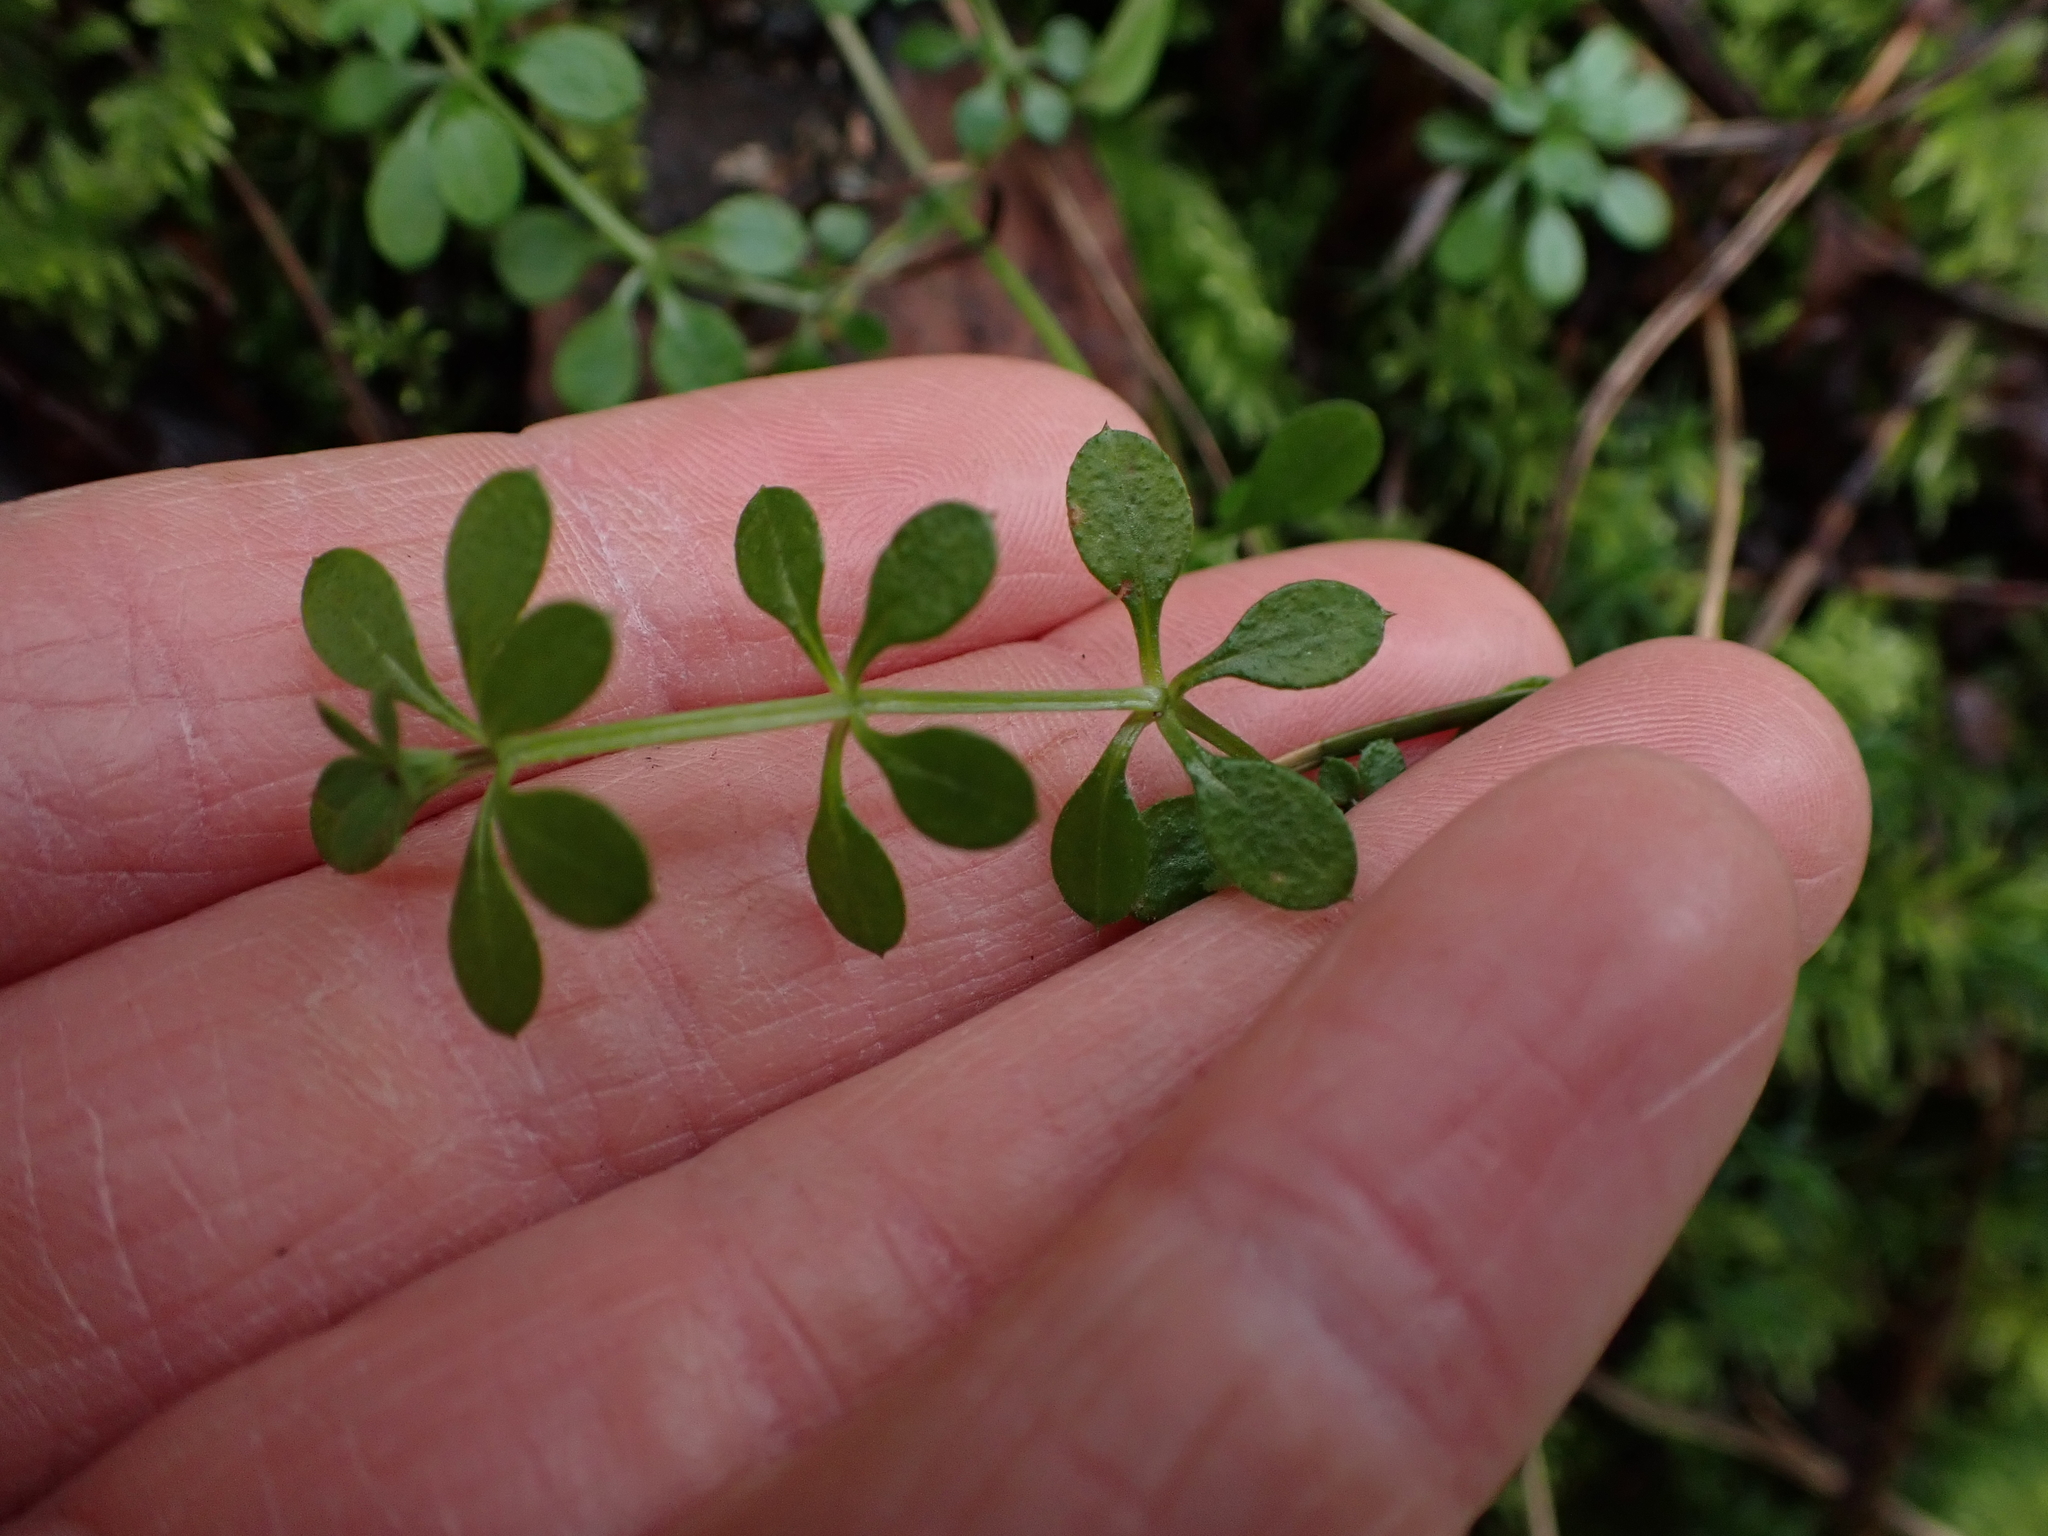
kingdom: Plantae
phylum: Tracheophyta
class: Magnoliopsida
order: Gentianales
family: Rubiaceae
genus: Galium
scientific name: Galium aparine
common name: Cleavers
